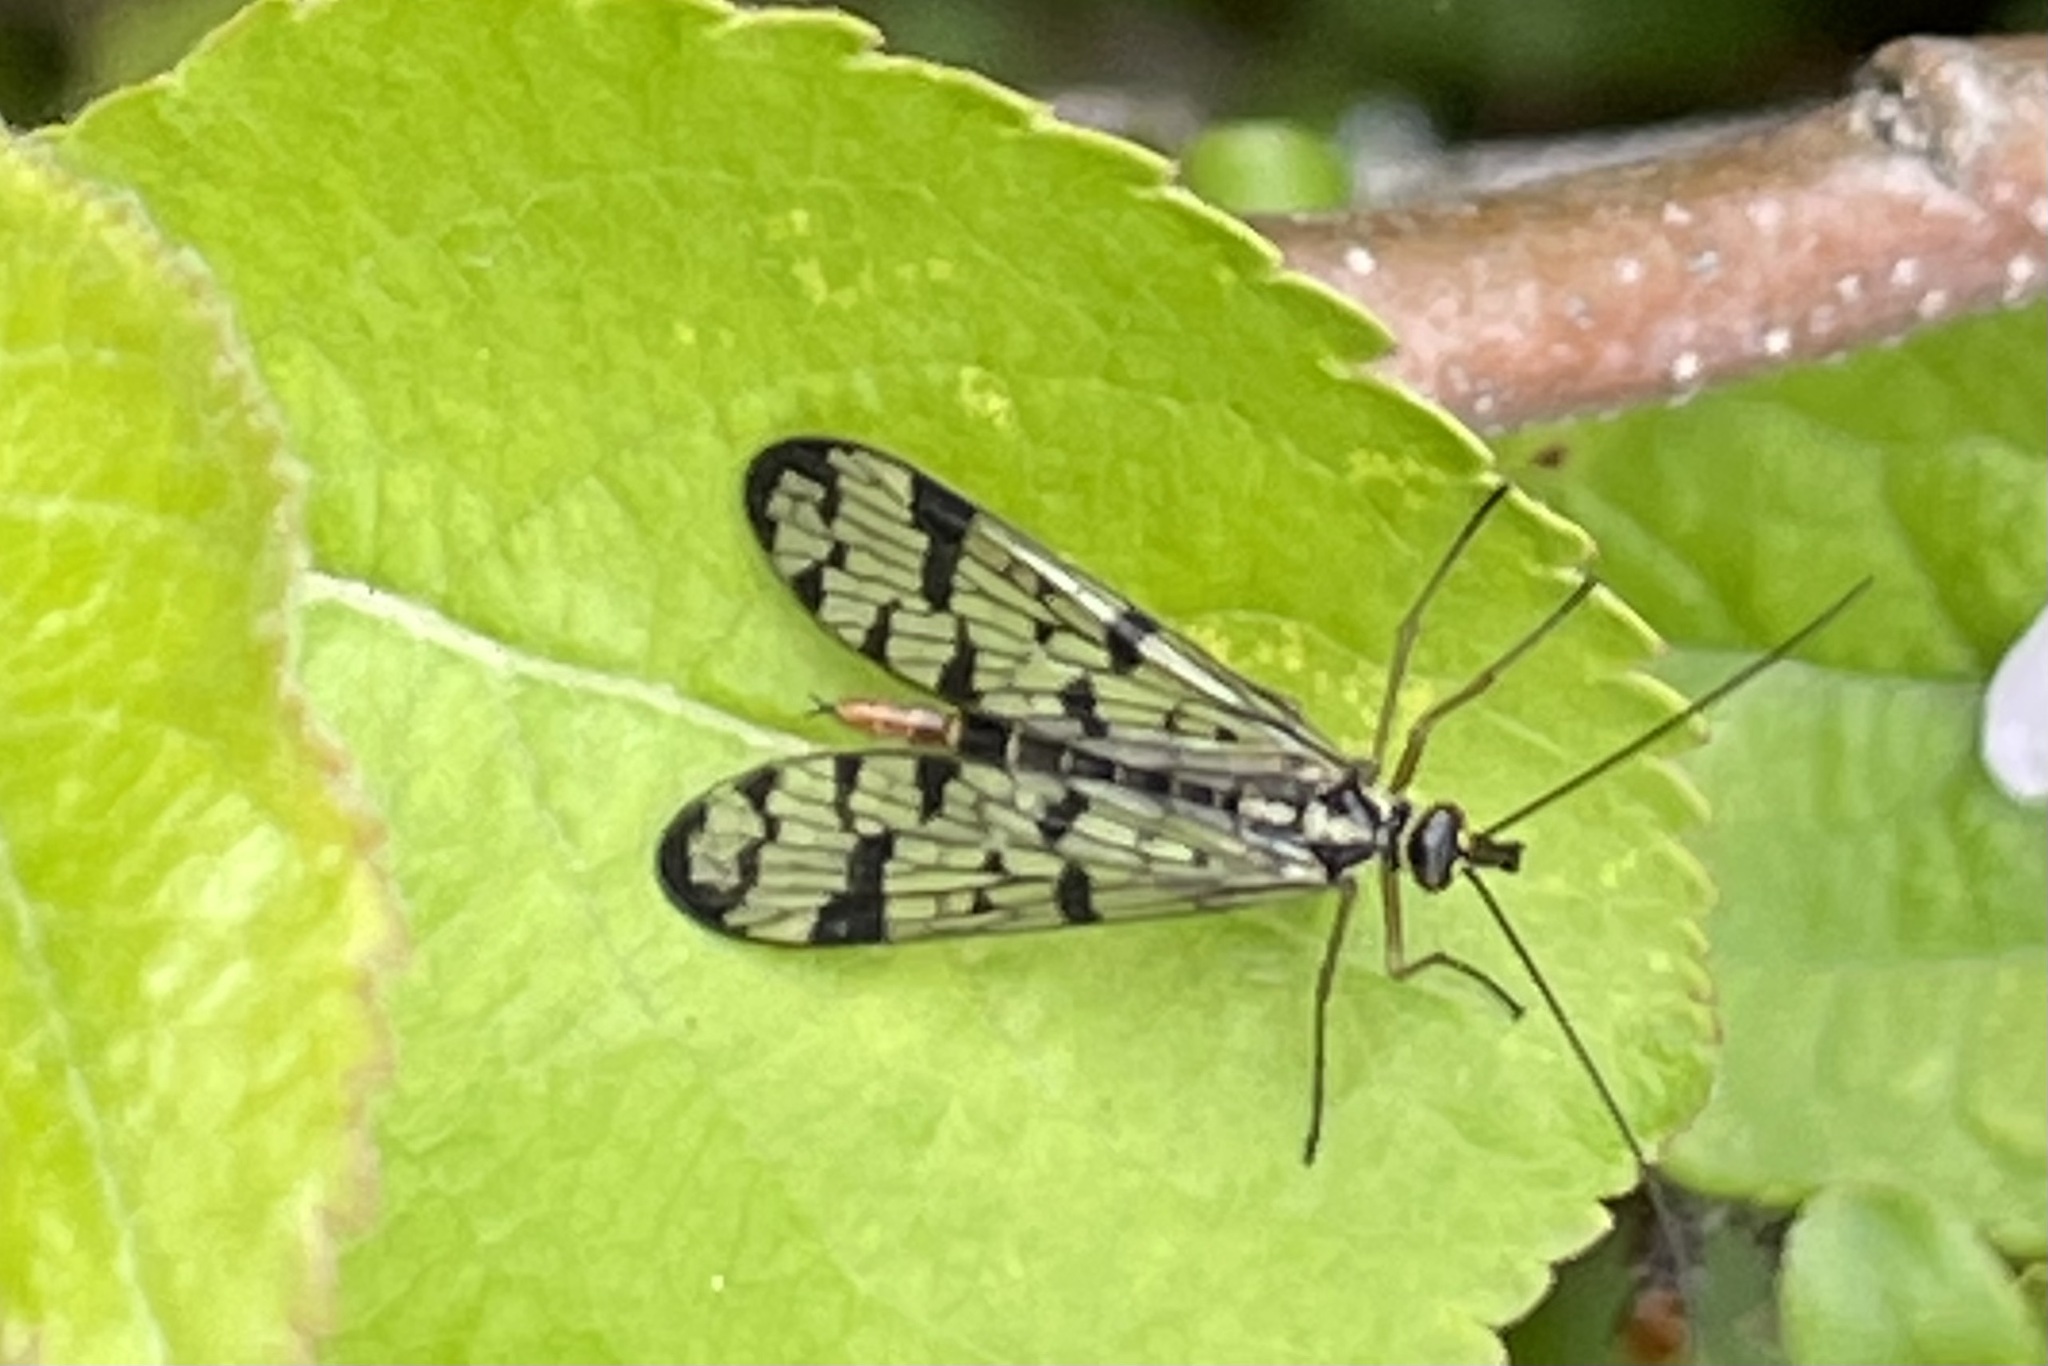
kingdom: Animalia
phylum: Arthropoda
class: Insecta
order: Mecoptera
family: Panorpidae
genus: Panorpa
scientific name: Panorpa communis
